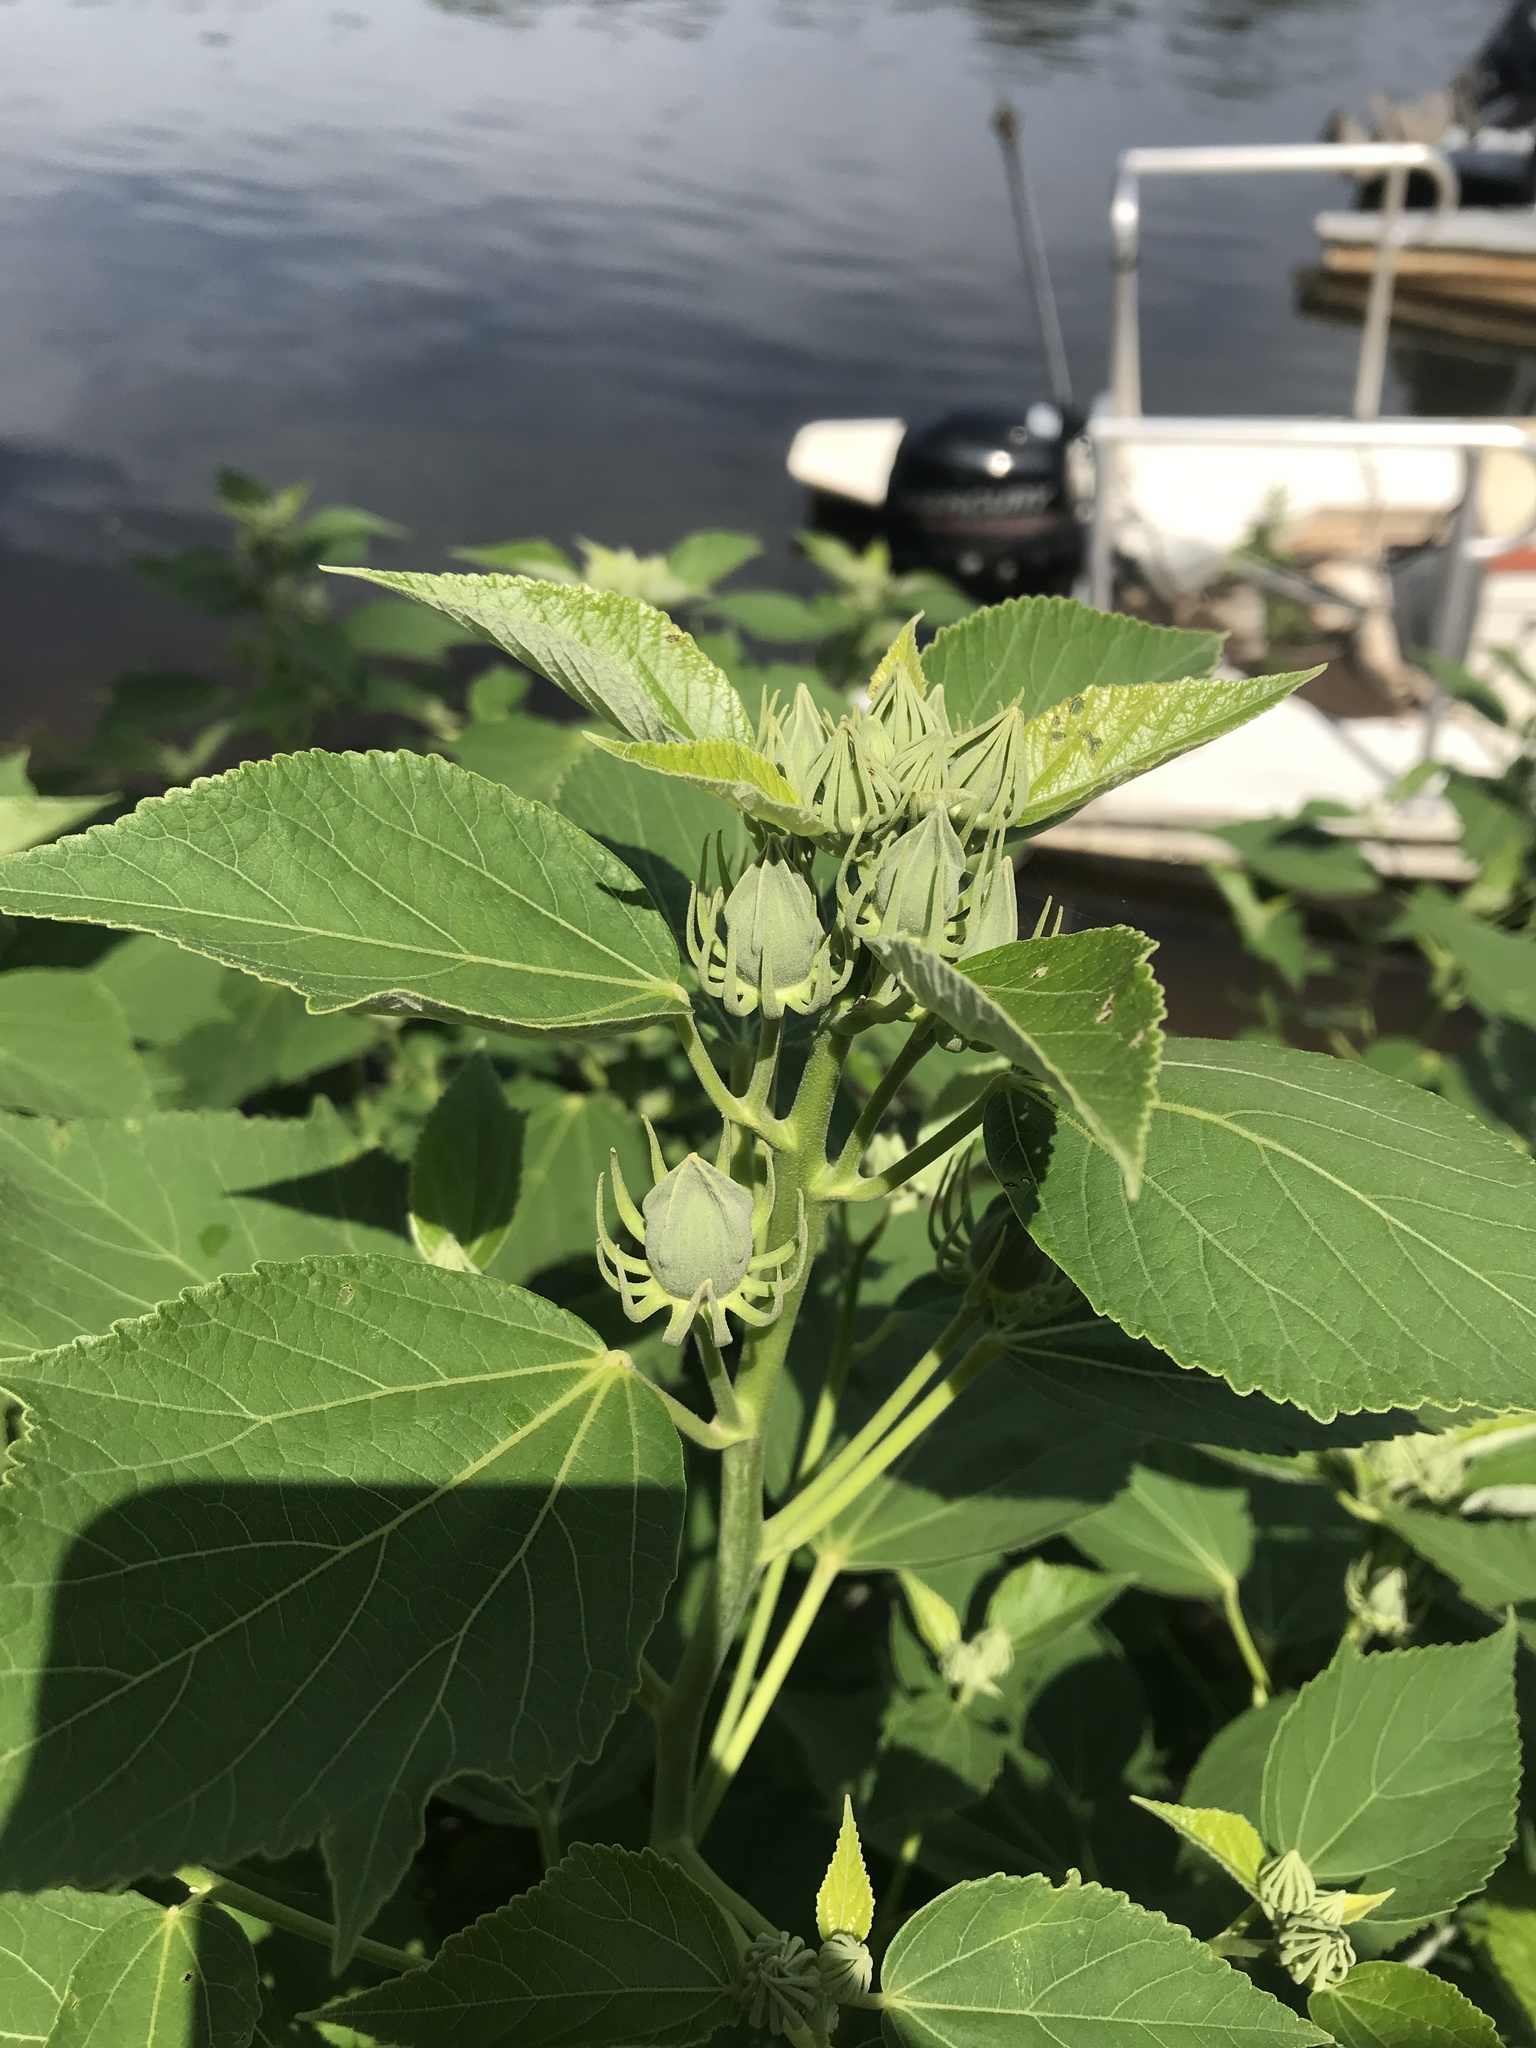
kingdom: Plantae
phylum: Tracheophyta
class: Magnoliopsida
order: Malvales
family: Malvaceae
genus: Hibiscus
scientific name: Hibiscus moscheutos
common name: Common rose-mallow
